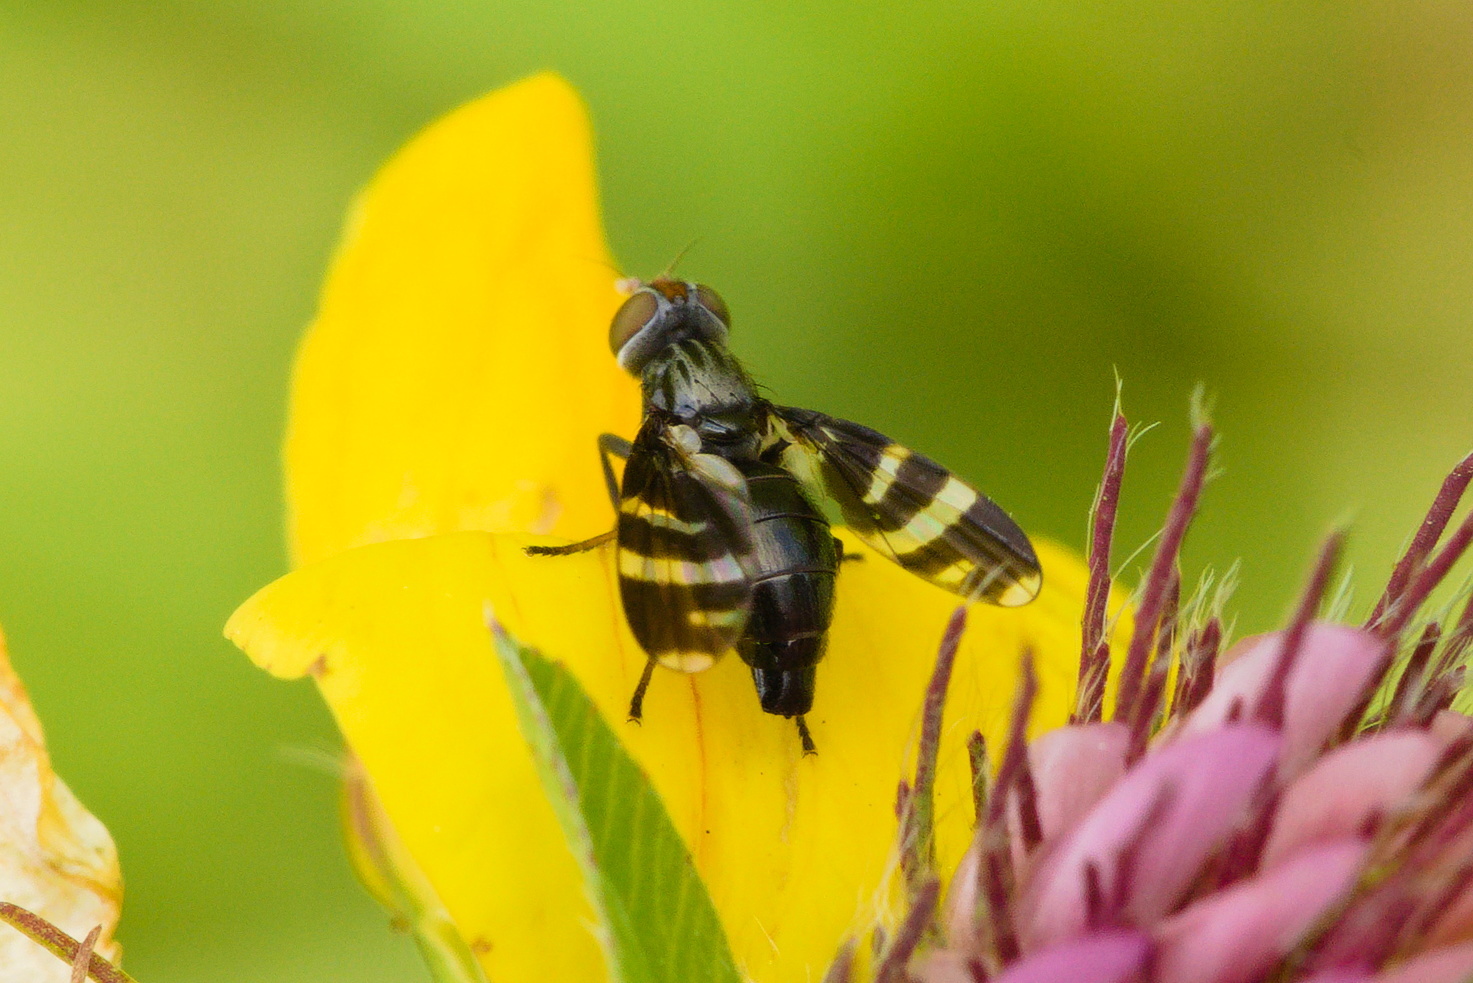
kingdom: Animalia
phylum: Arthropoda
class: Insecta
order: Diptera
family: Ulidiidae
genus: Herina
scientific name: Herina frondescentiae
